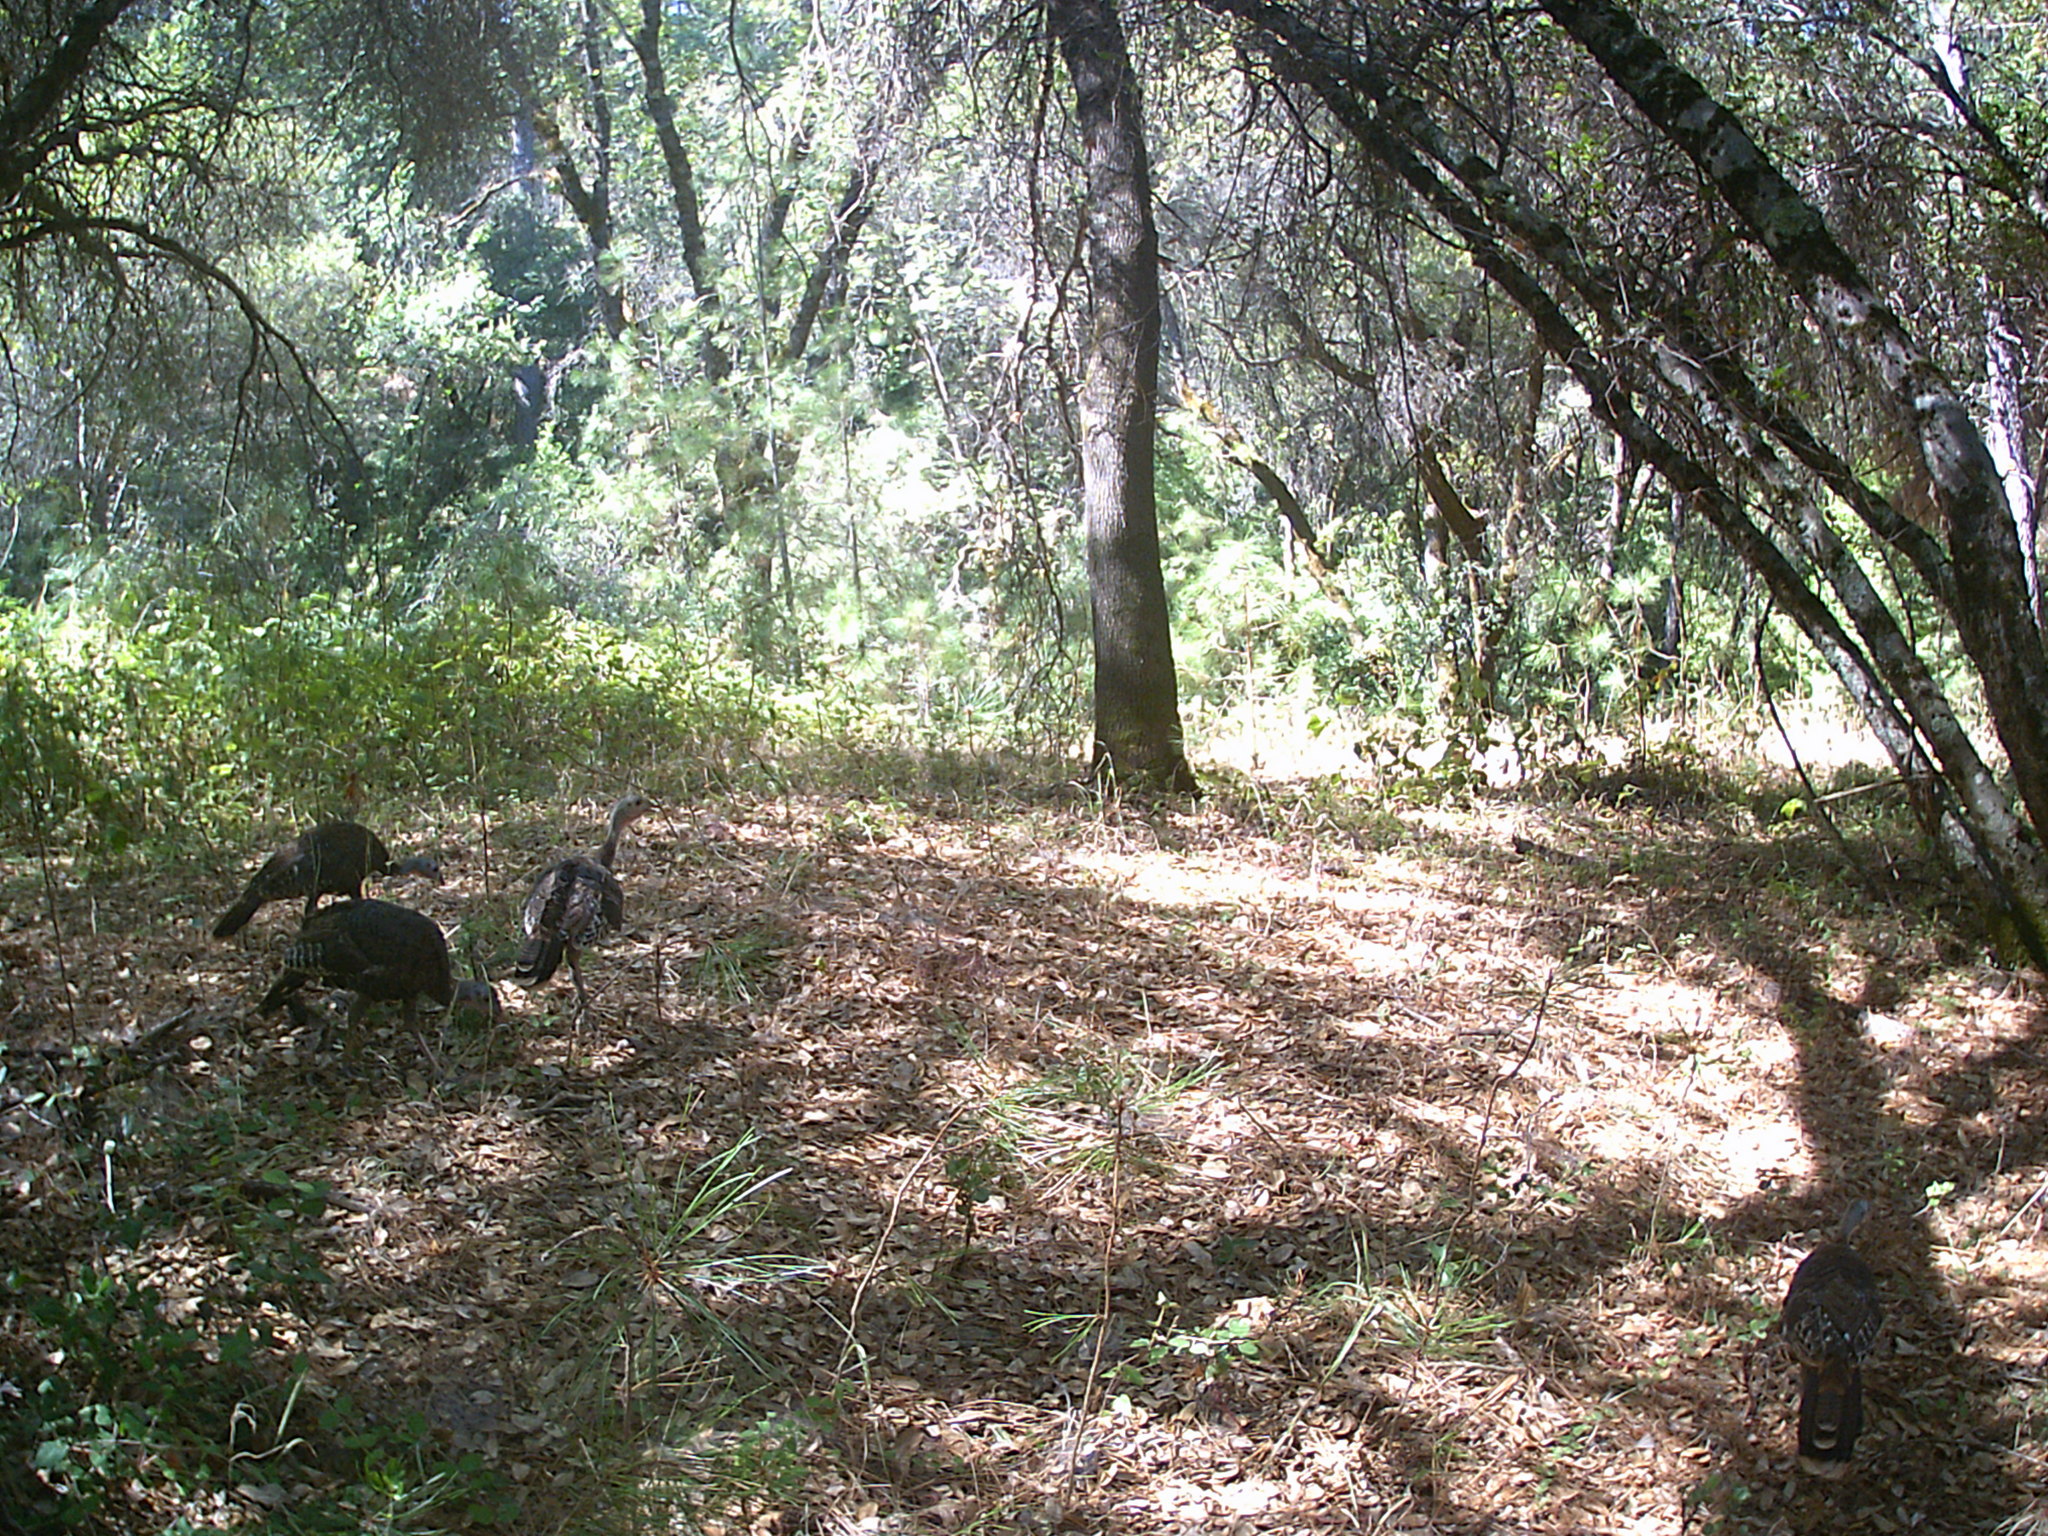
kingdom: Animalia
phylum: Chordata
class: Aves
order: Galliformes
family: Phasianidae
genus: Meleagris
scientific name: Meleagris gallopavo
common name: Wild turkey
